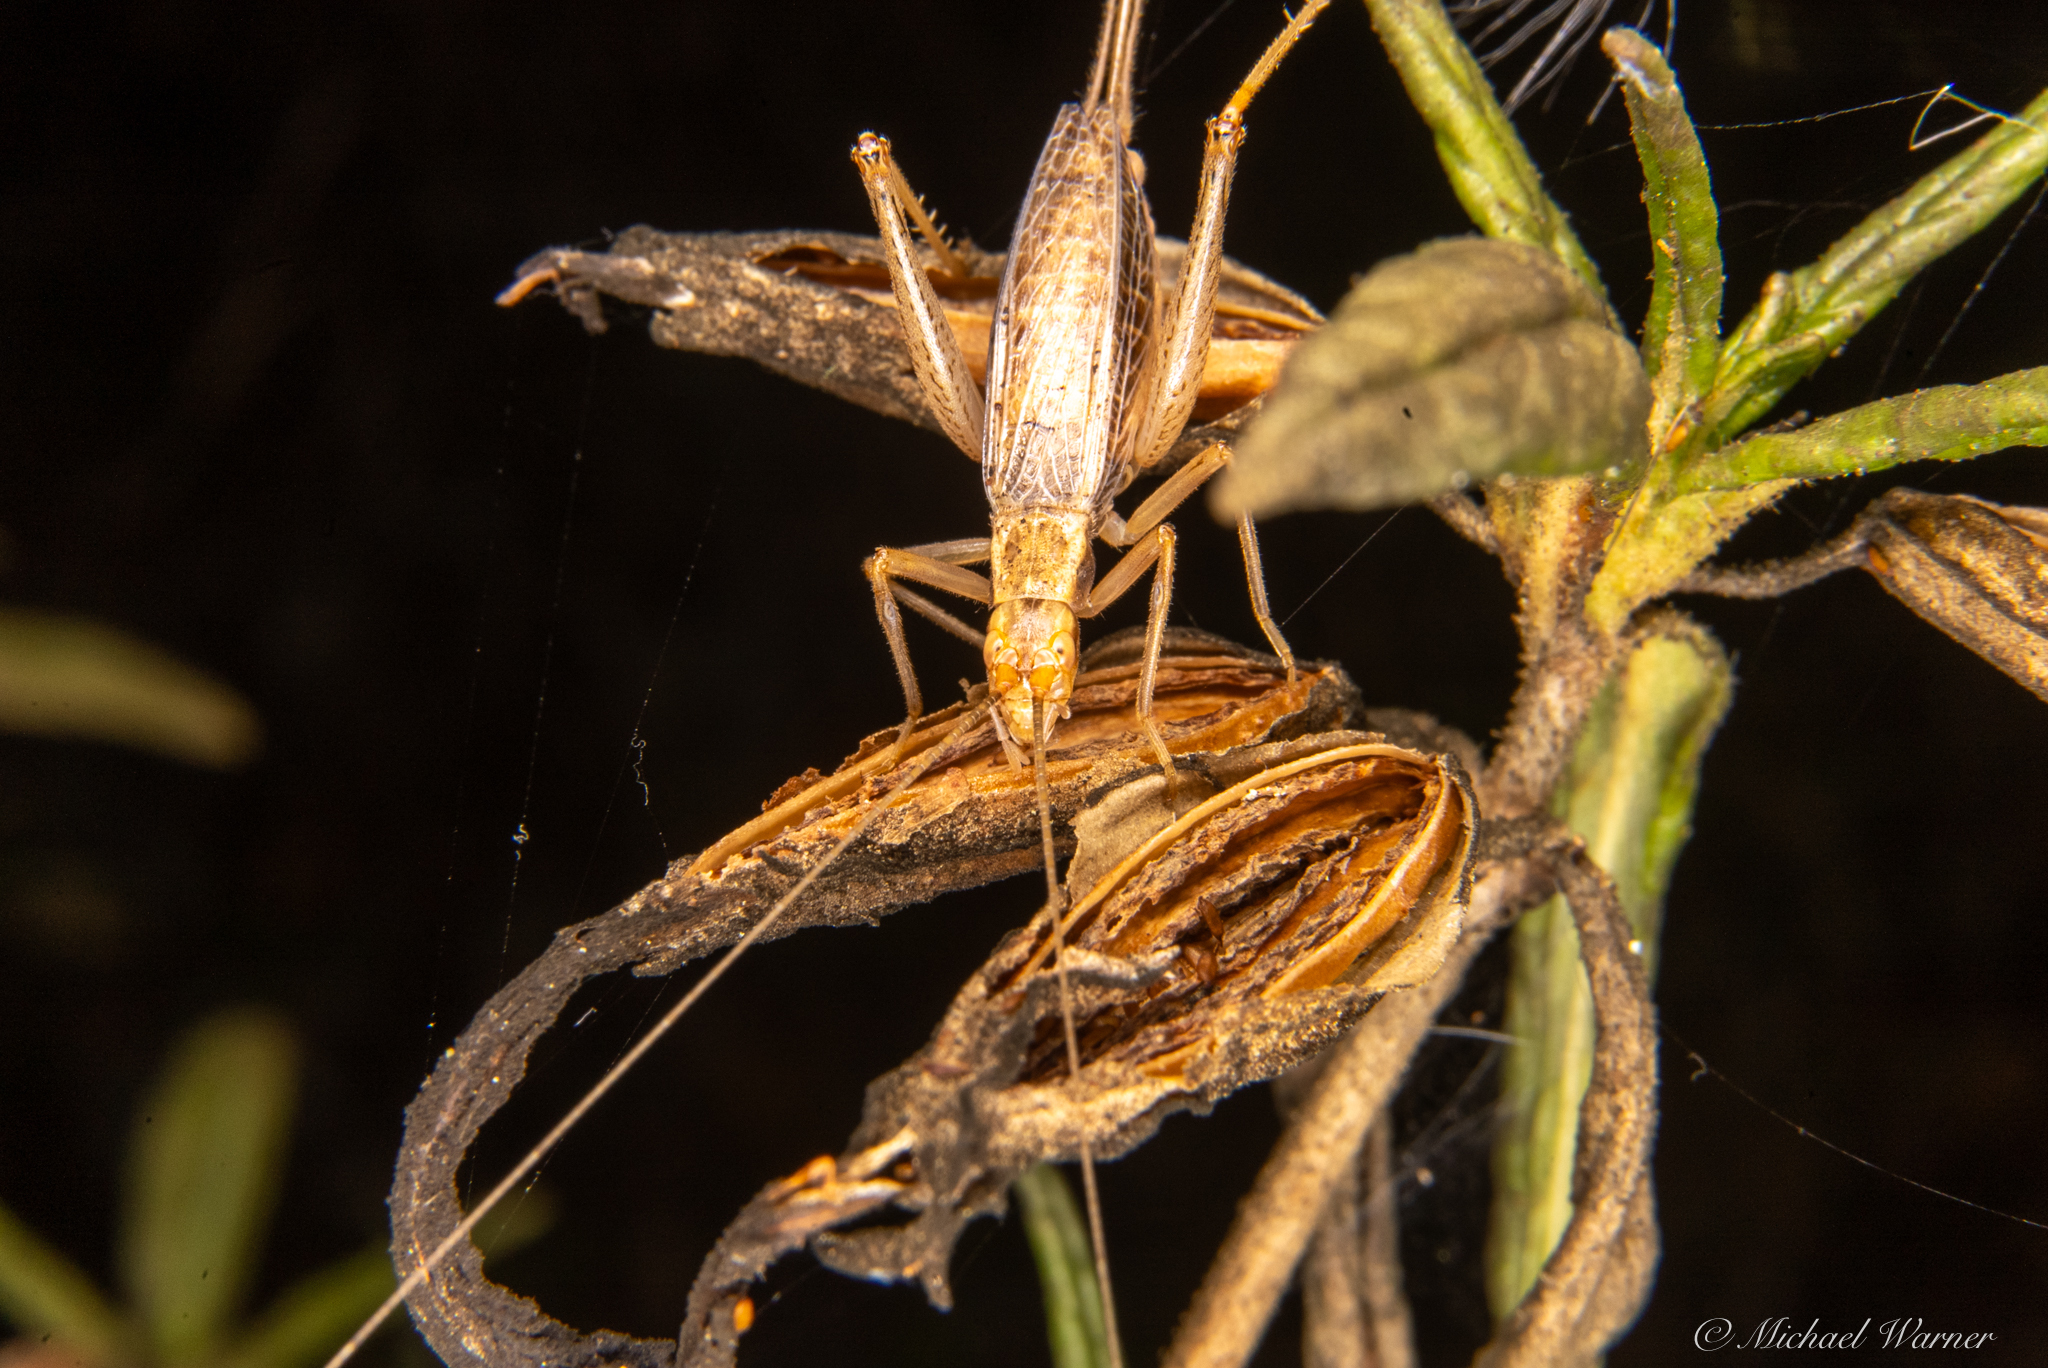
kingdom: Animalia
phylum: Arthropoda
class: Insecta
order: Orthoptera
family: Gryllidae
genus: Oecanthus
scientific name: Oecanthus californicus
